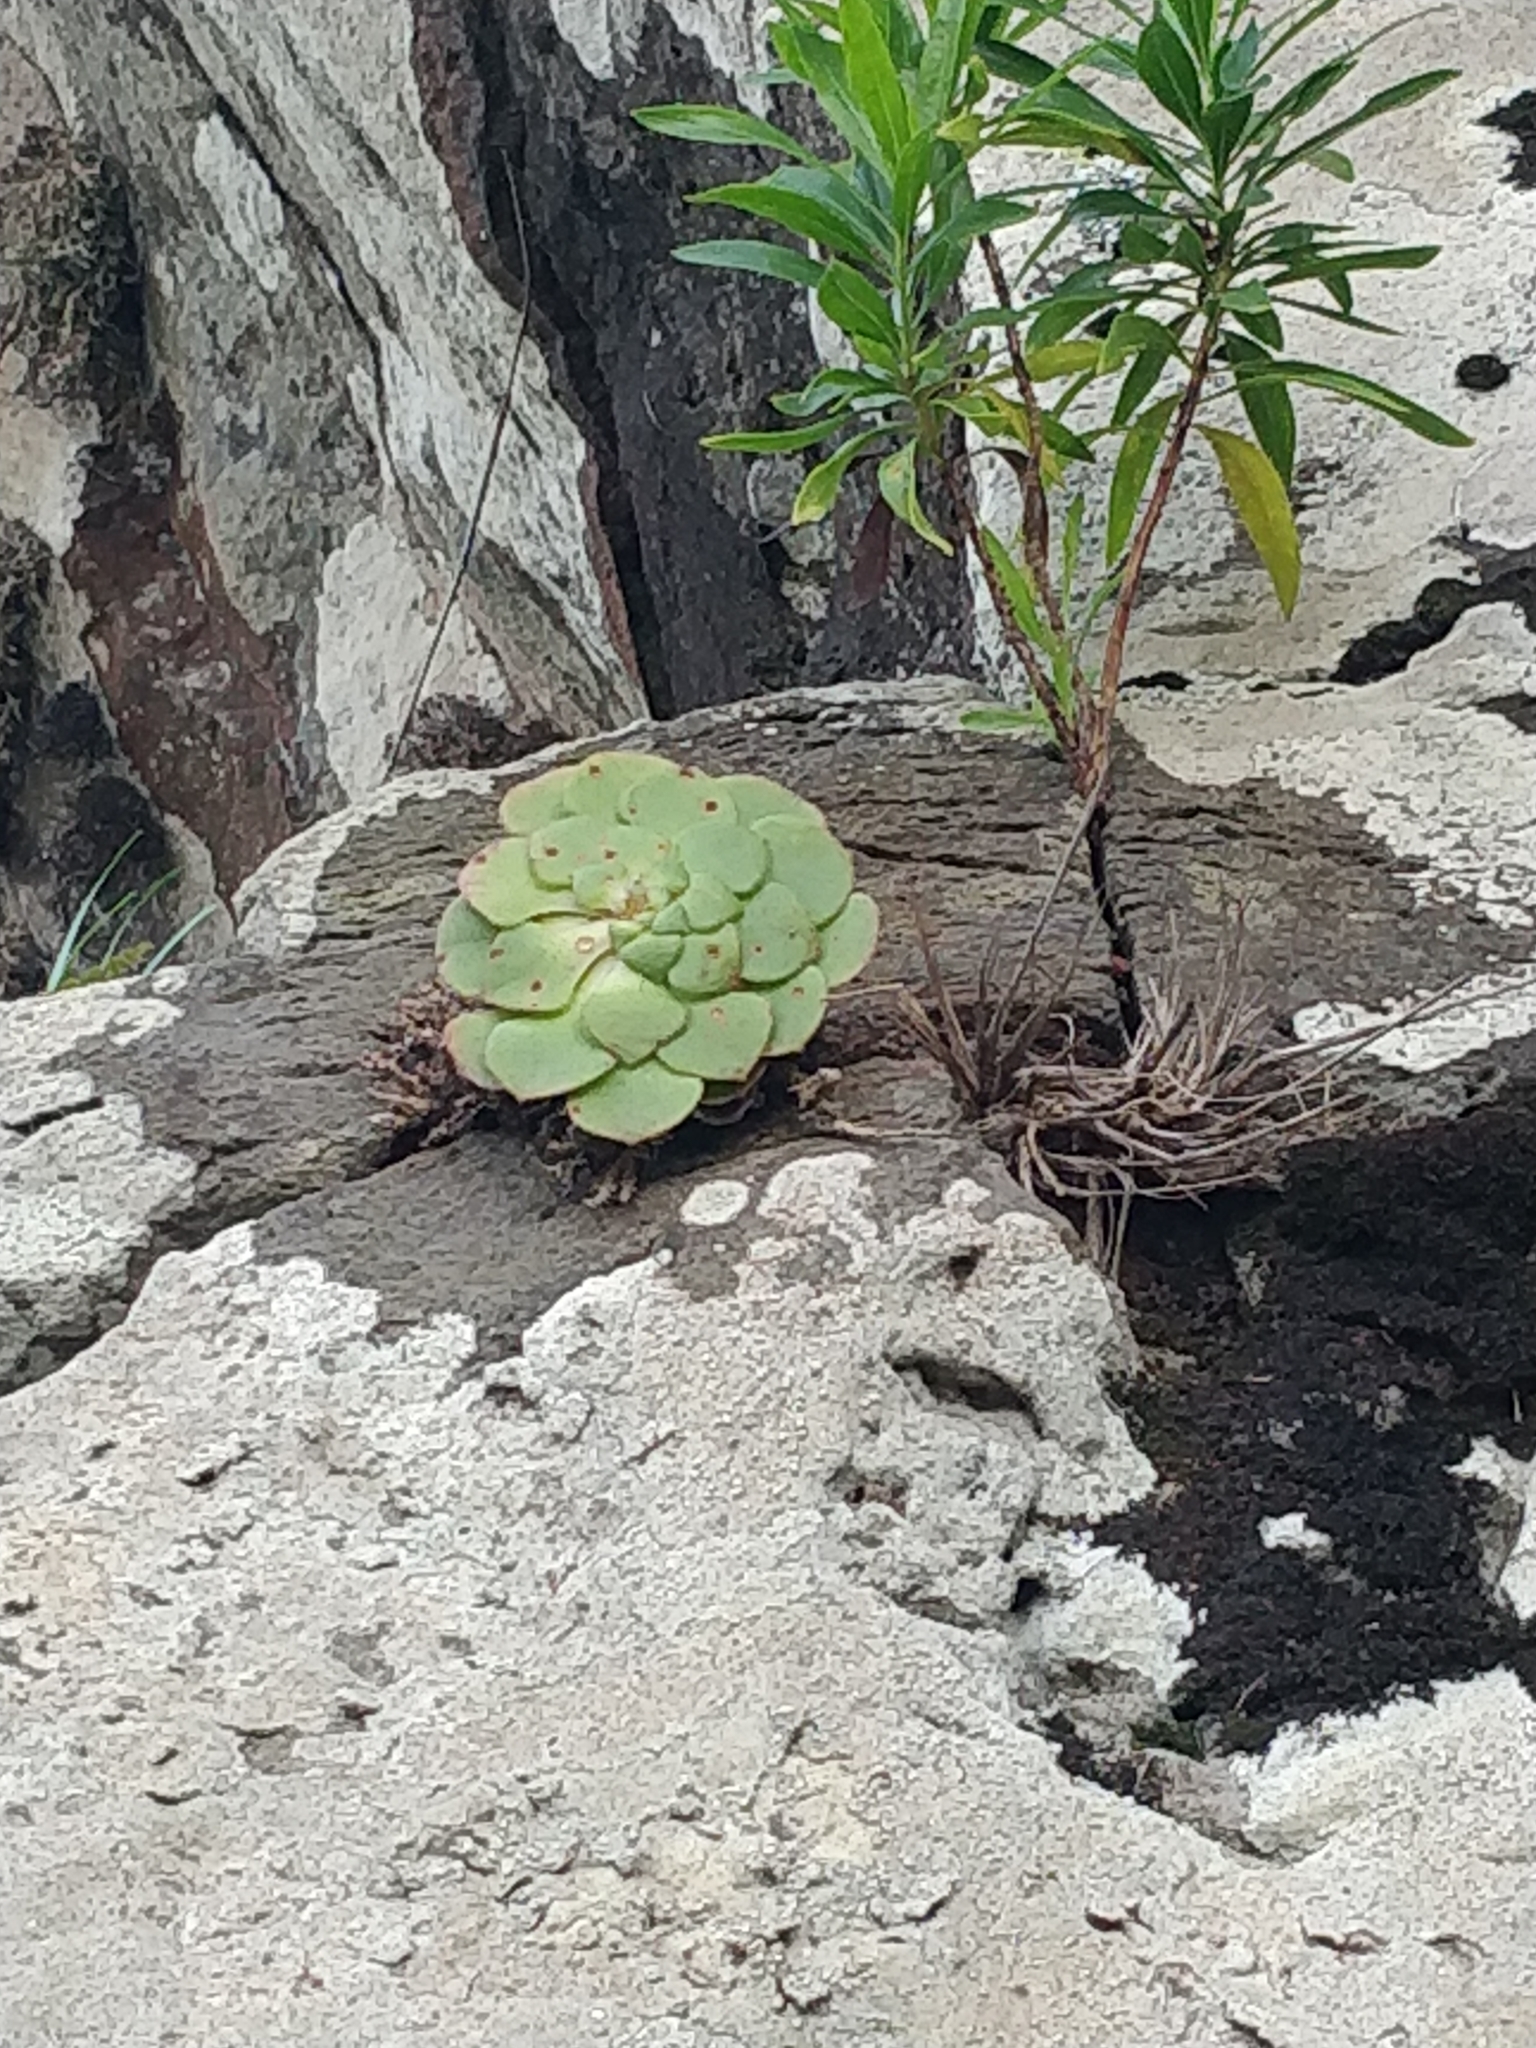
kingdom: Plantae
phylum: Tracheophyta
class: Magnoliopsida
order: Saxifragales
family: Crassulaceae
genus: Aeonium
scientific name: Aeonium glandulosum
